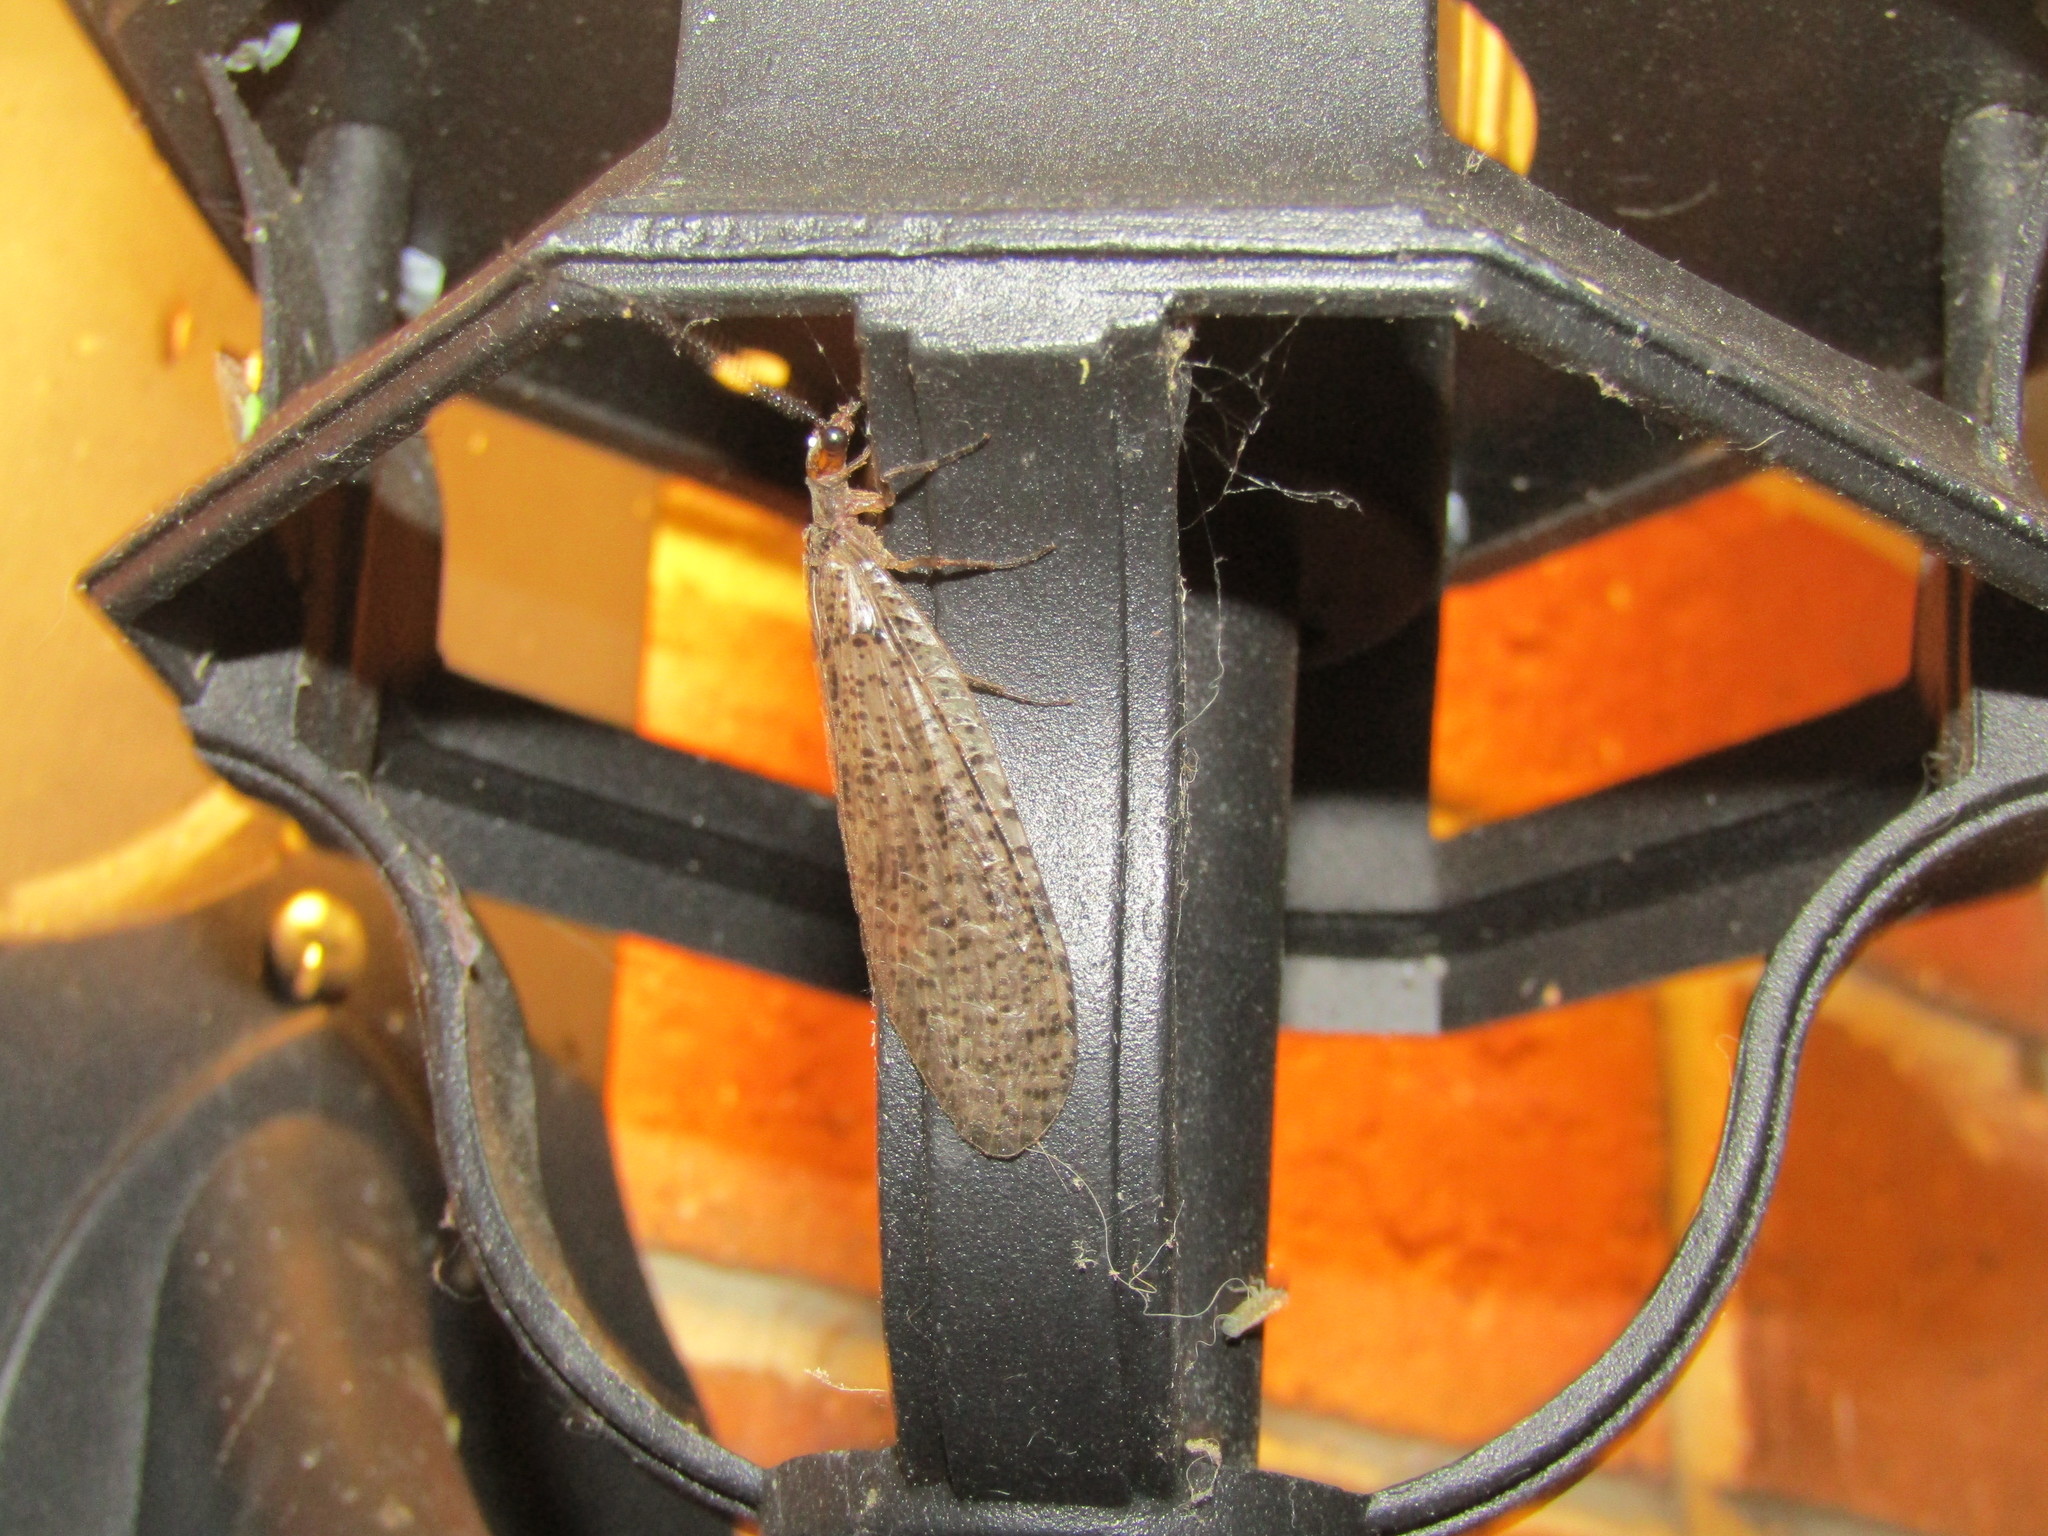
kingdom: Animalia
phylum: Arthropoda
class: Insecta
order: Megaloptera
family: Corydalidae
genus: Neohermes
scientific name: Neohermes concolor
